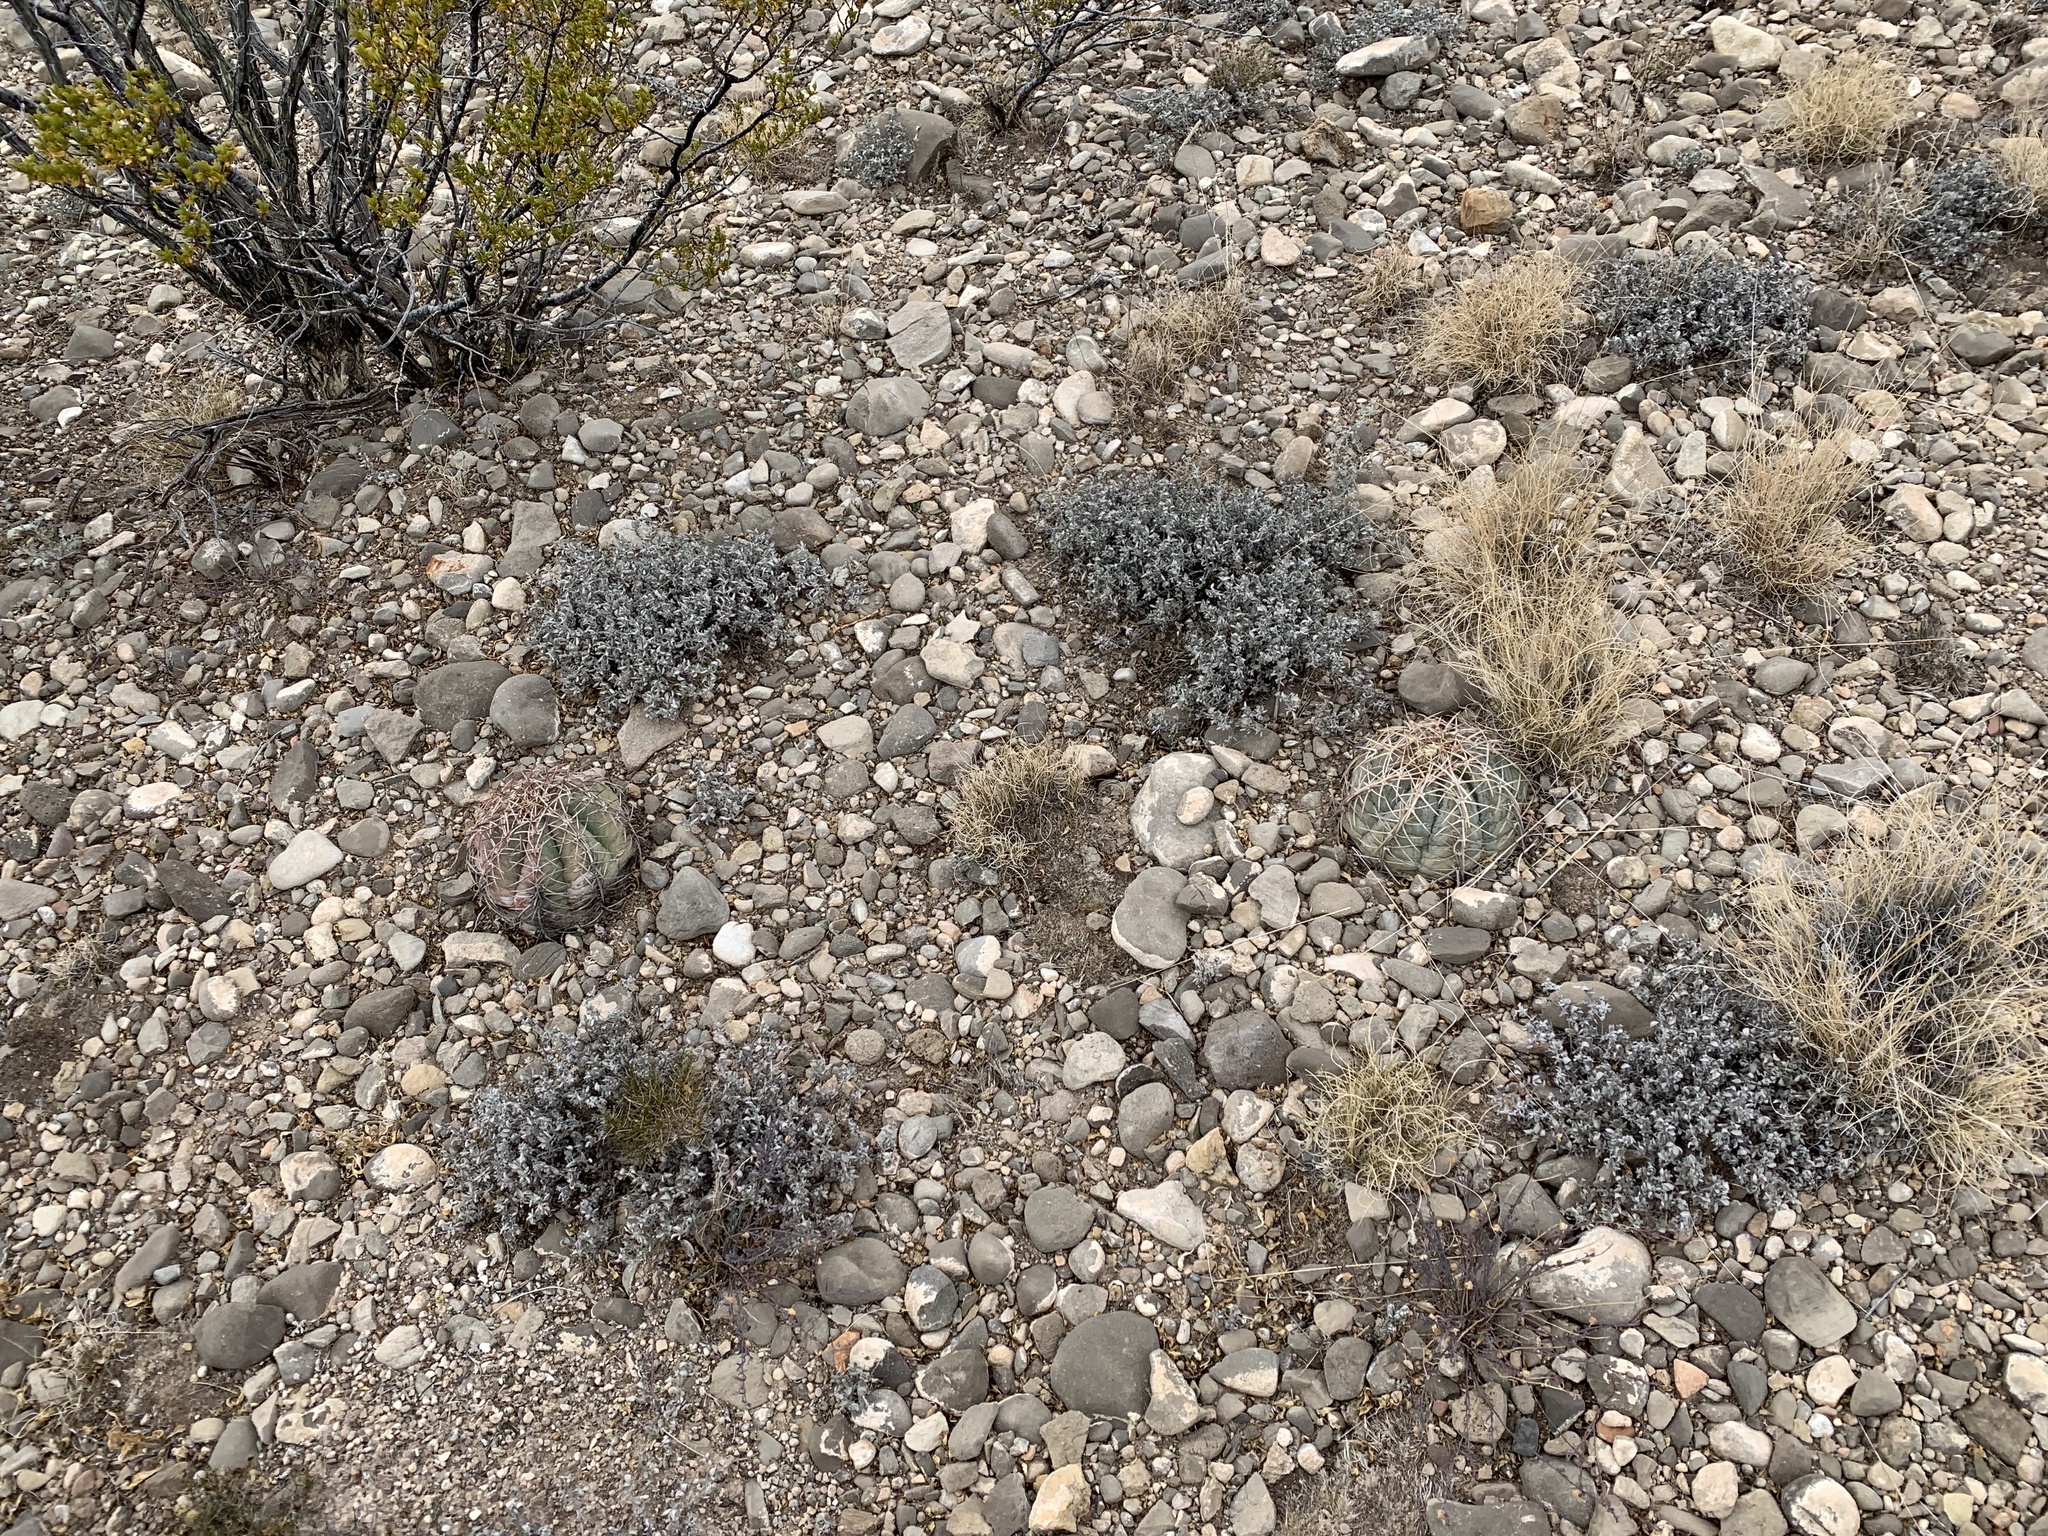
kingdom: Plantae
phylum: Tracheophyta
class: Magnoliopsida
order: Caryophyllales
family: Cactaceae
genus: Echinocactus
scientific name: Echinocactus horizonthalonius
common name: Devilshead
